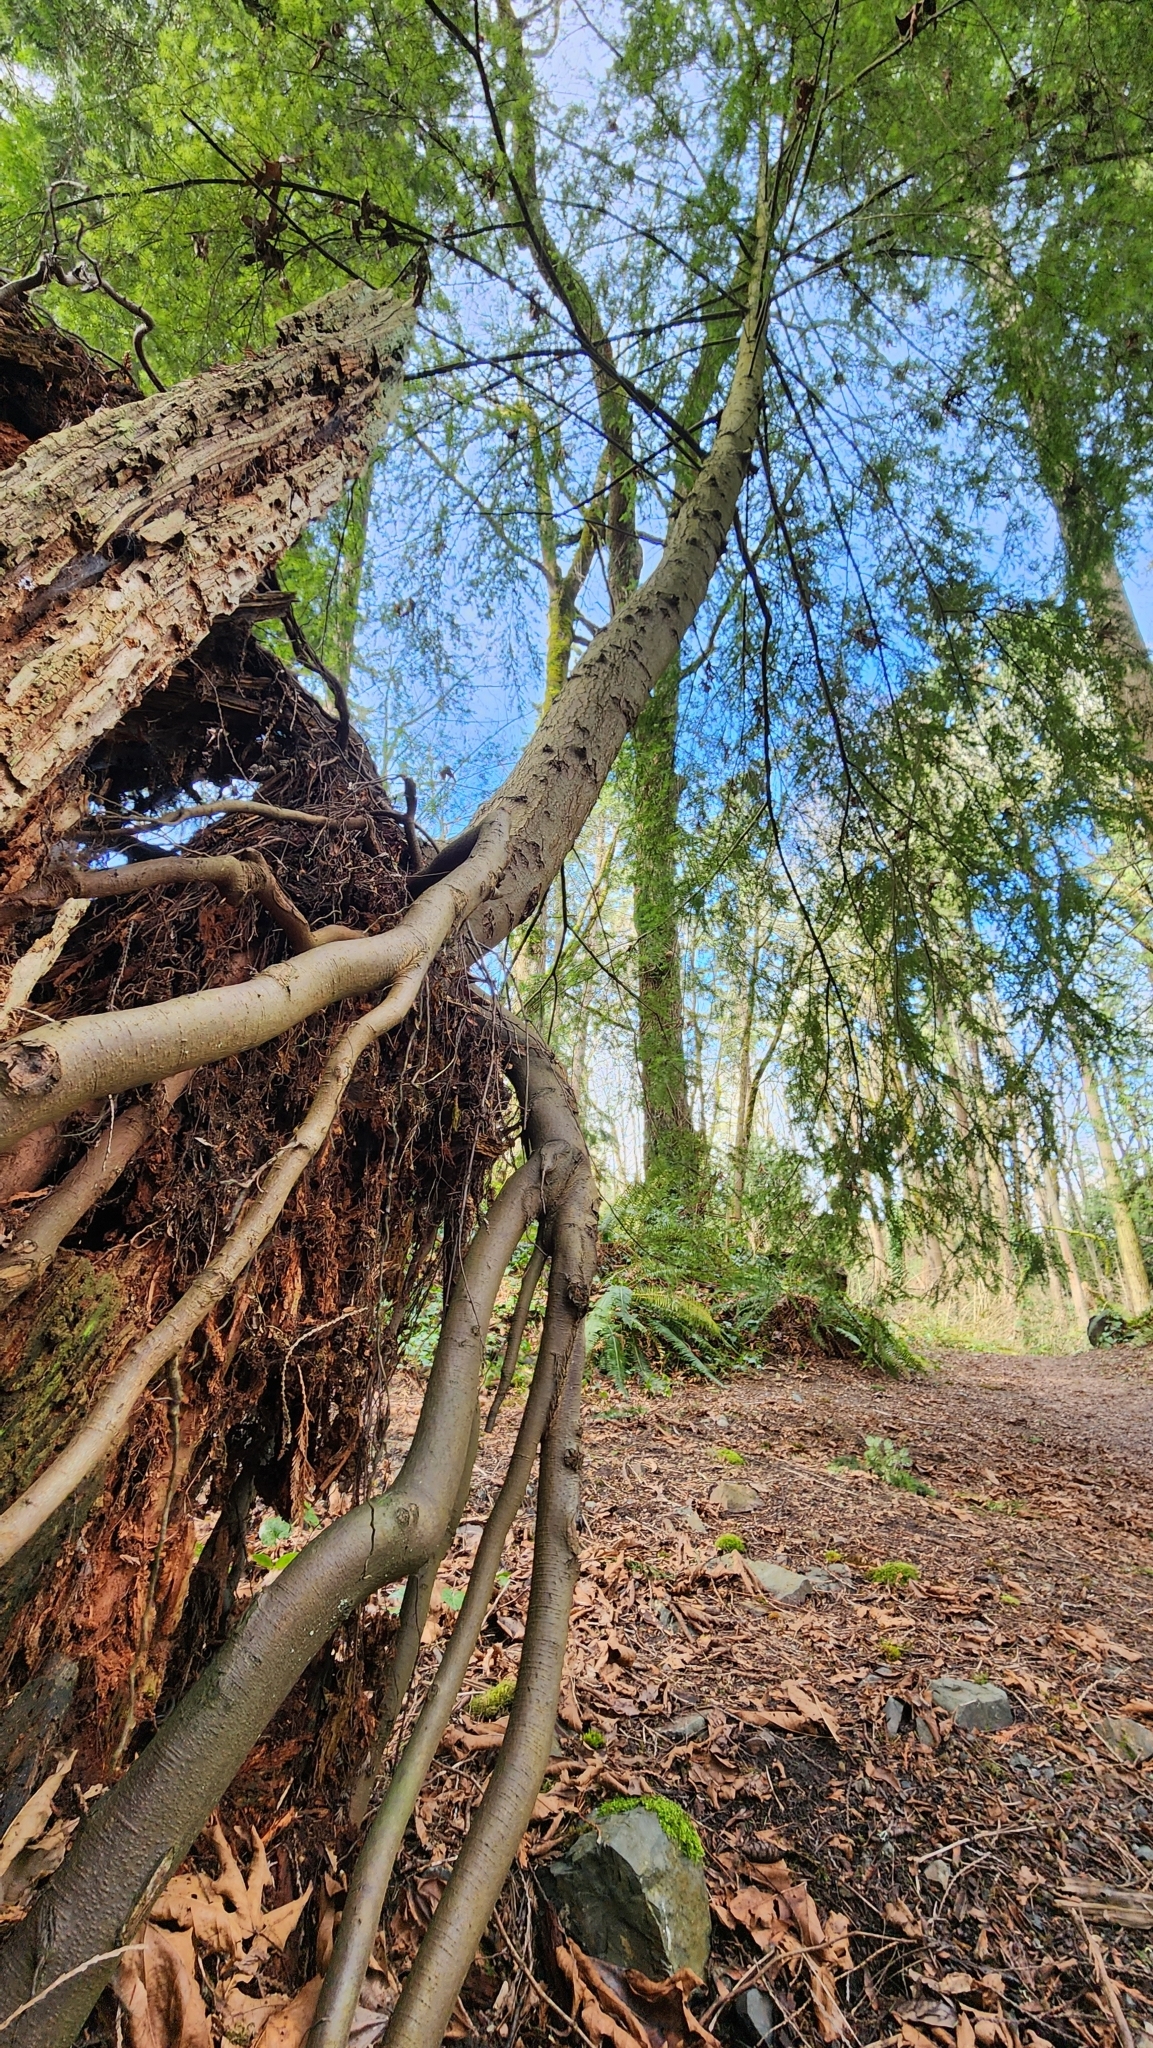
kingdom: Plantae
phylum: Tracheophyta
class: Pinopsida
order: Pinales
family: Pinaceae
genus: Tsuga
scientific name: Tsuga heterophylla
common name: Western hemlock
